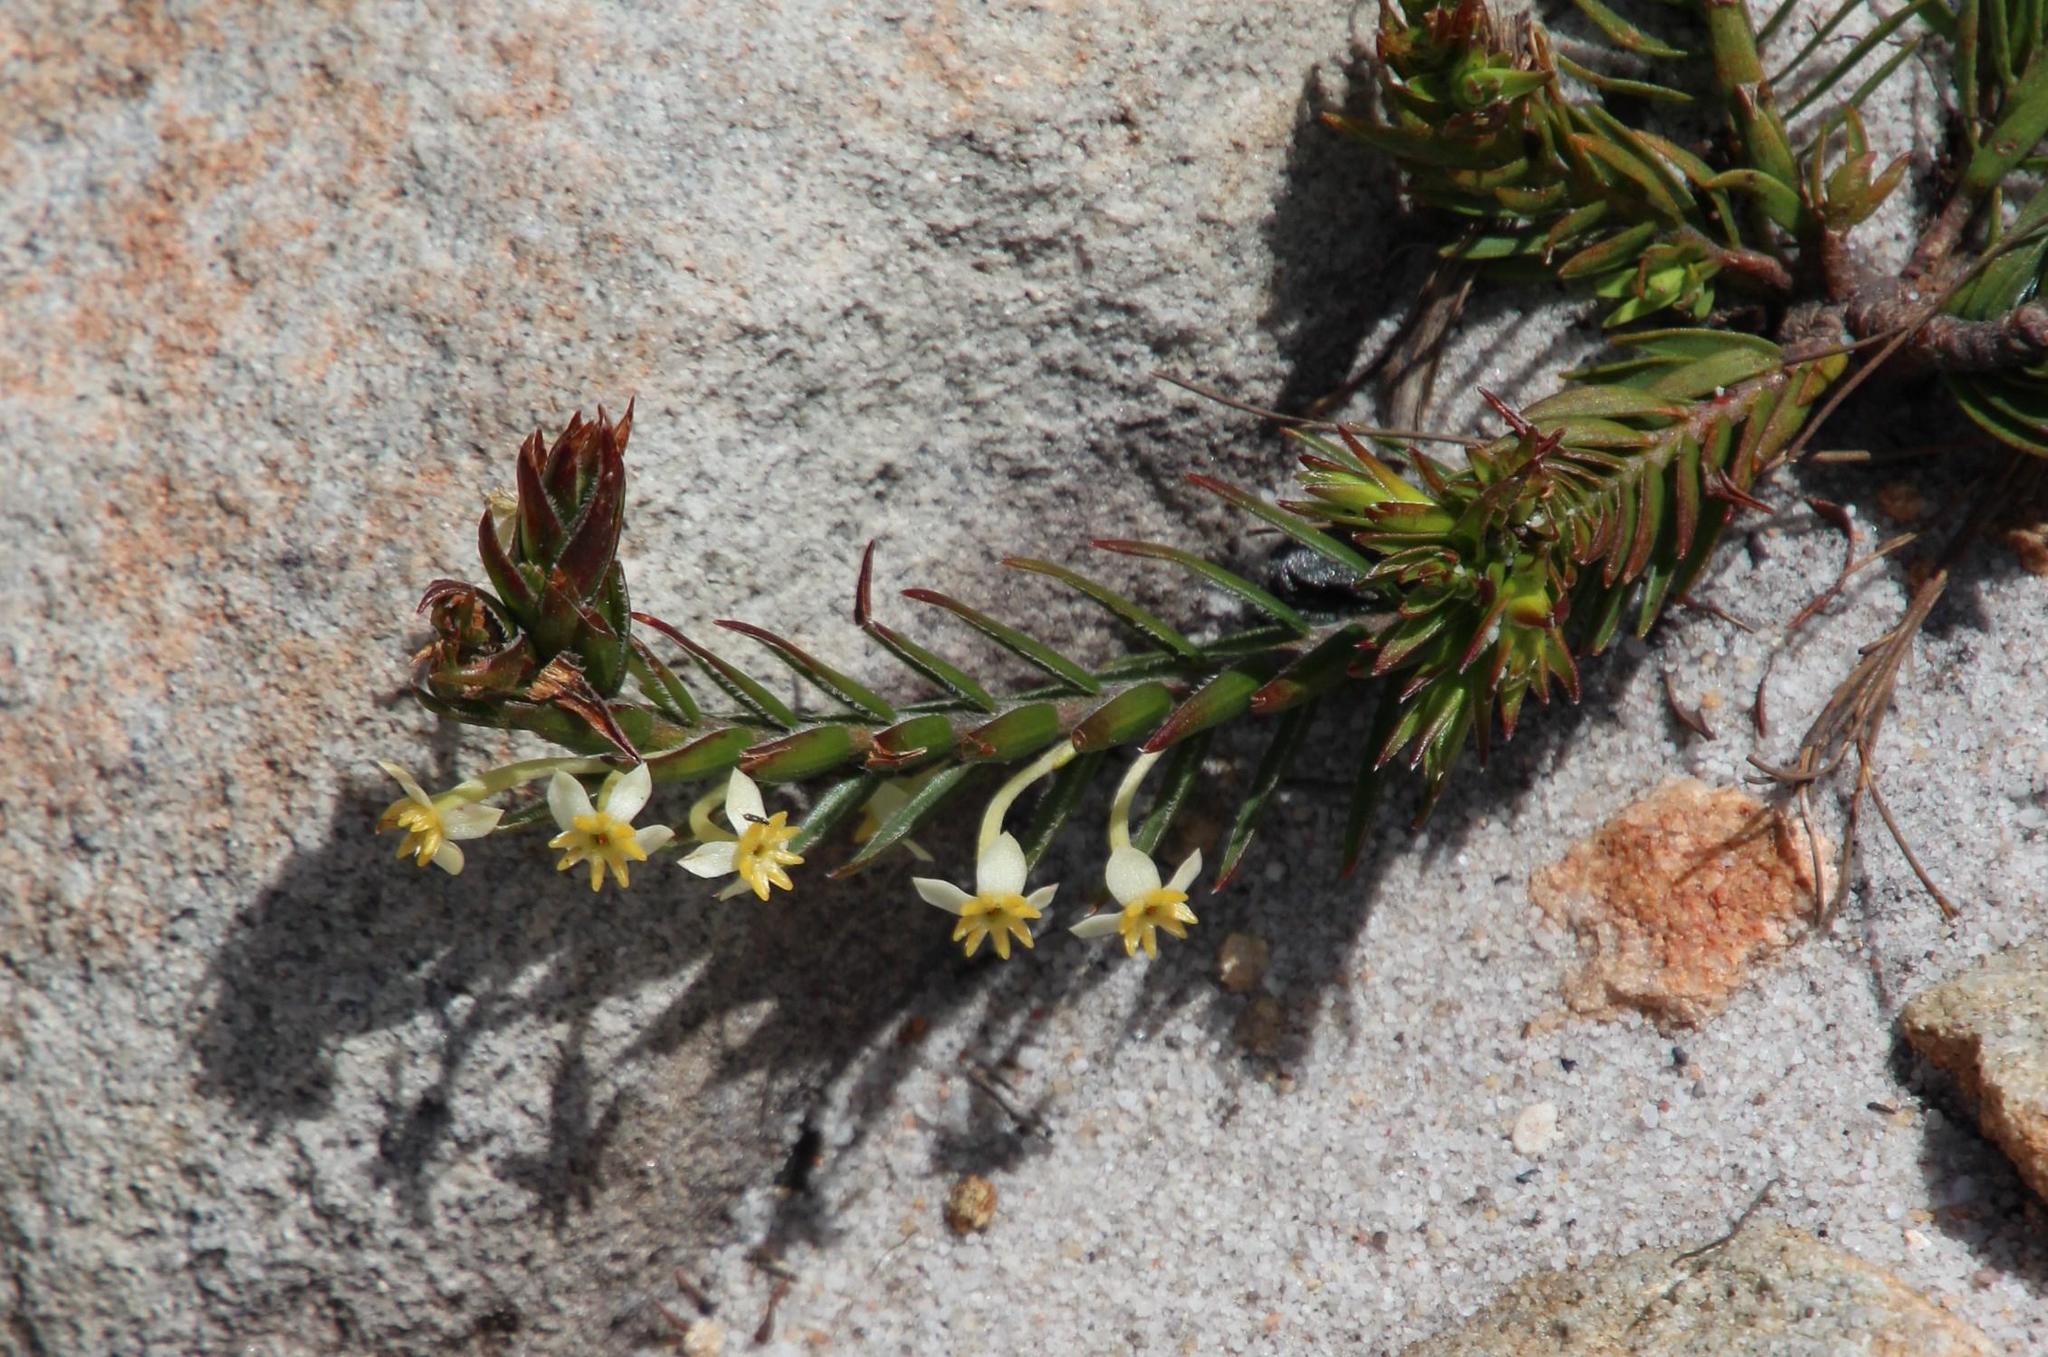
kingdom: Plantae
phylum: Tracheophyta
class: Magnoliopsida
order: Malvales
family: Thymelaeaceae
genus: Struthiola
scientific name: Struthiola ciliata
